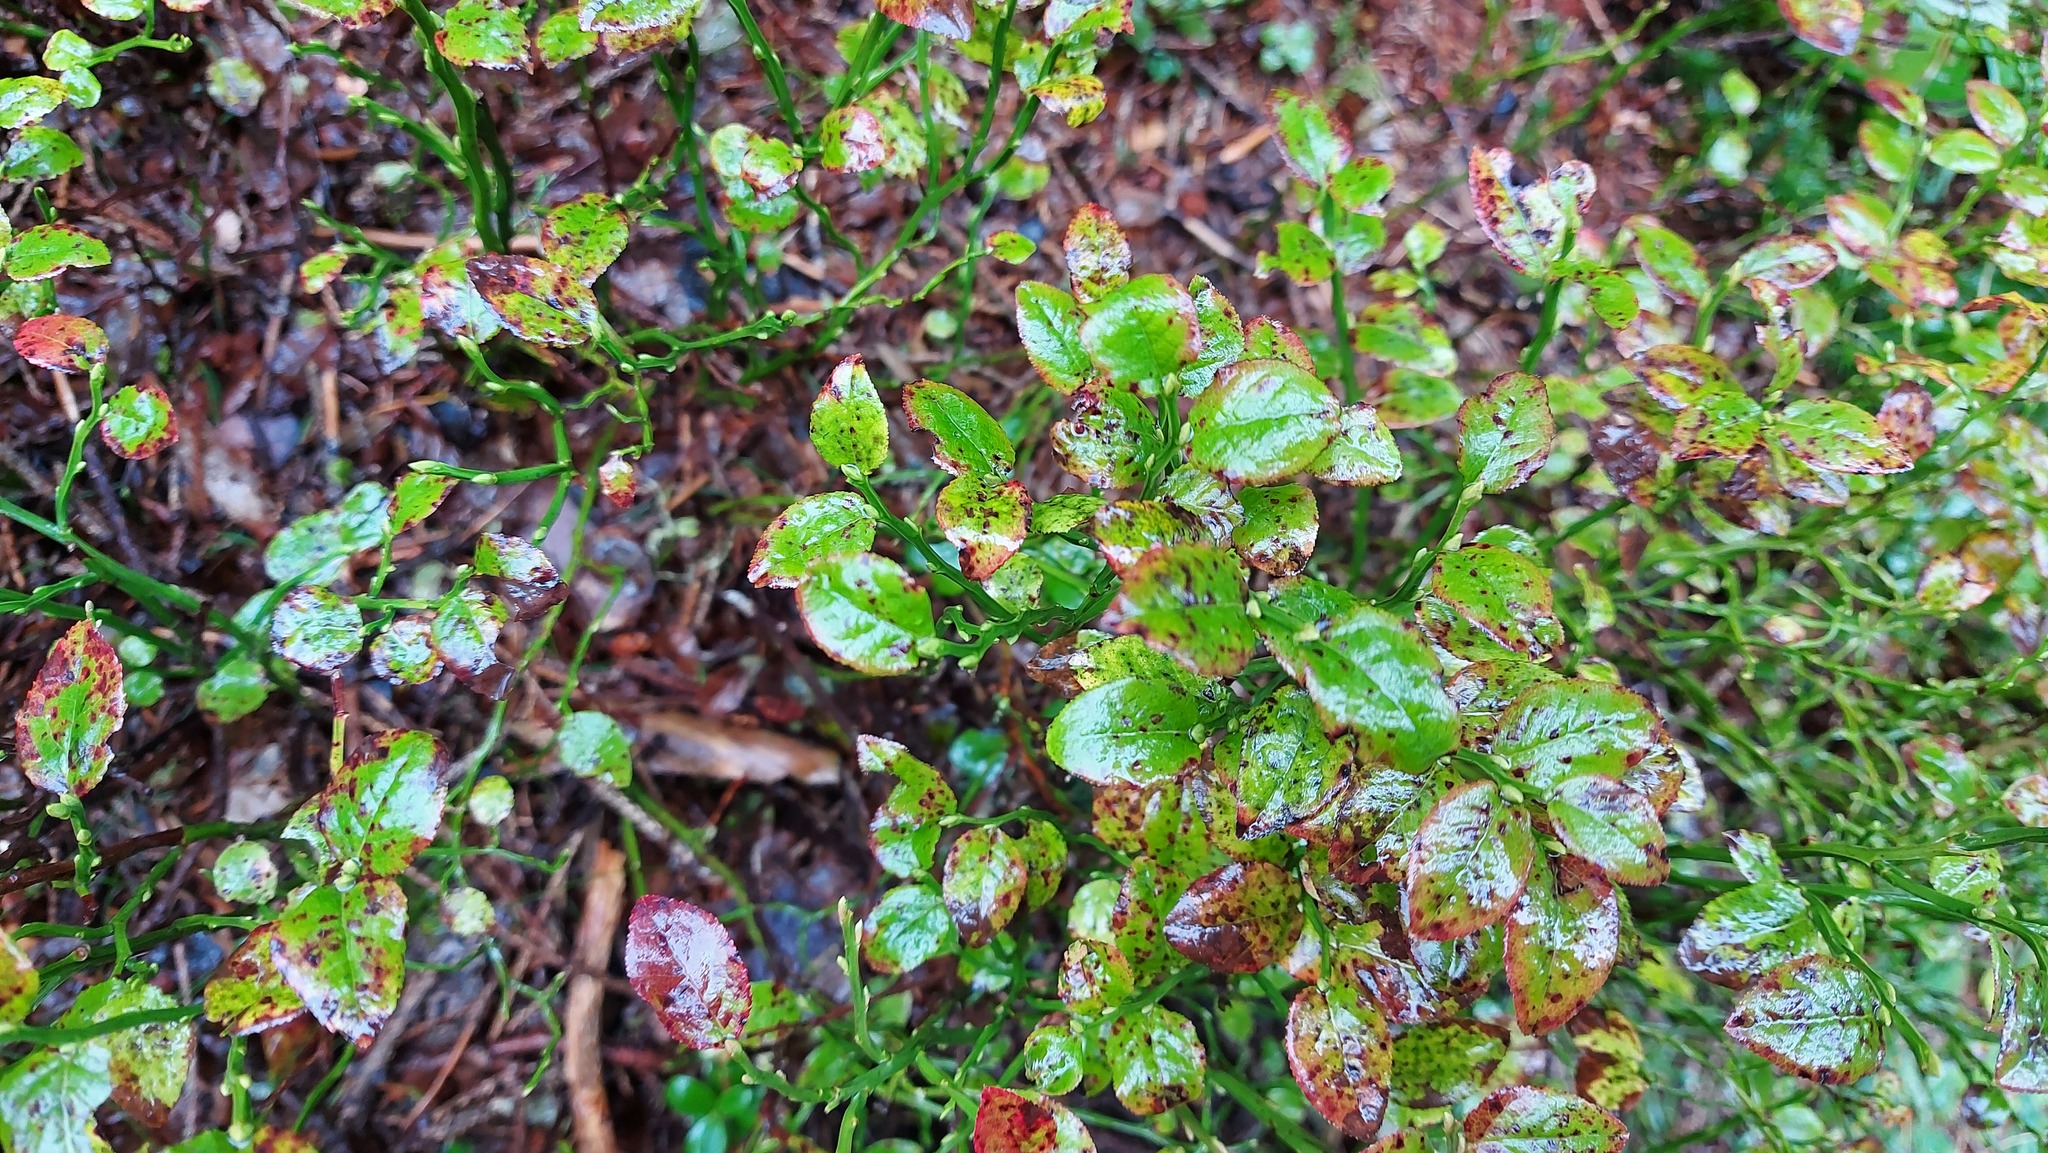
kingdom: Plantae
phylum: Tracheophyta
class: Magnoliopsida
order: Ericales
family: Ericaceae
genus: Vaccinium
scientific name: Vaccinium myrtillus
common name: Bilberry
